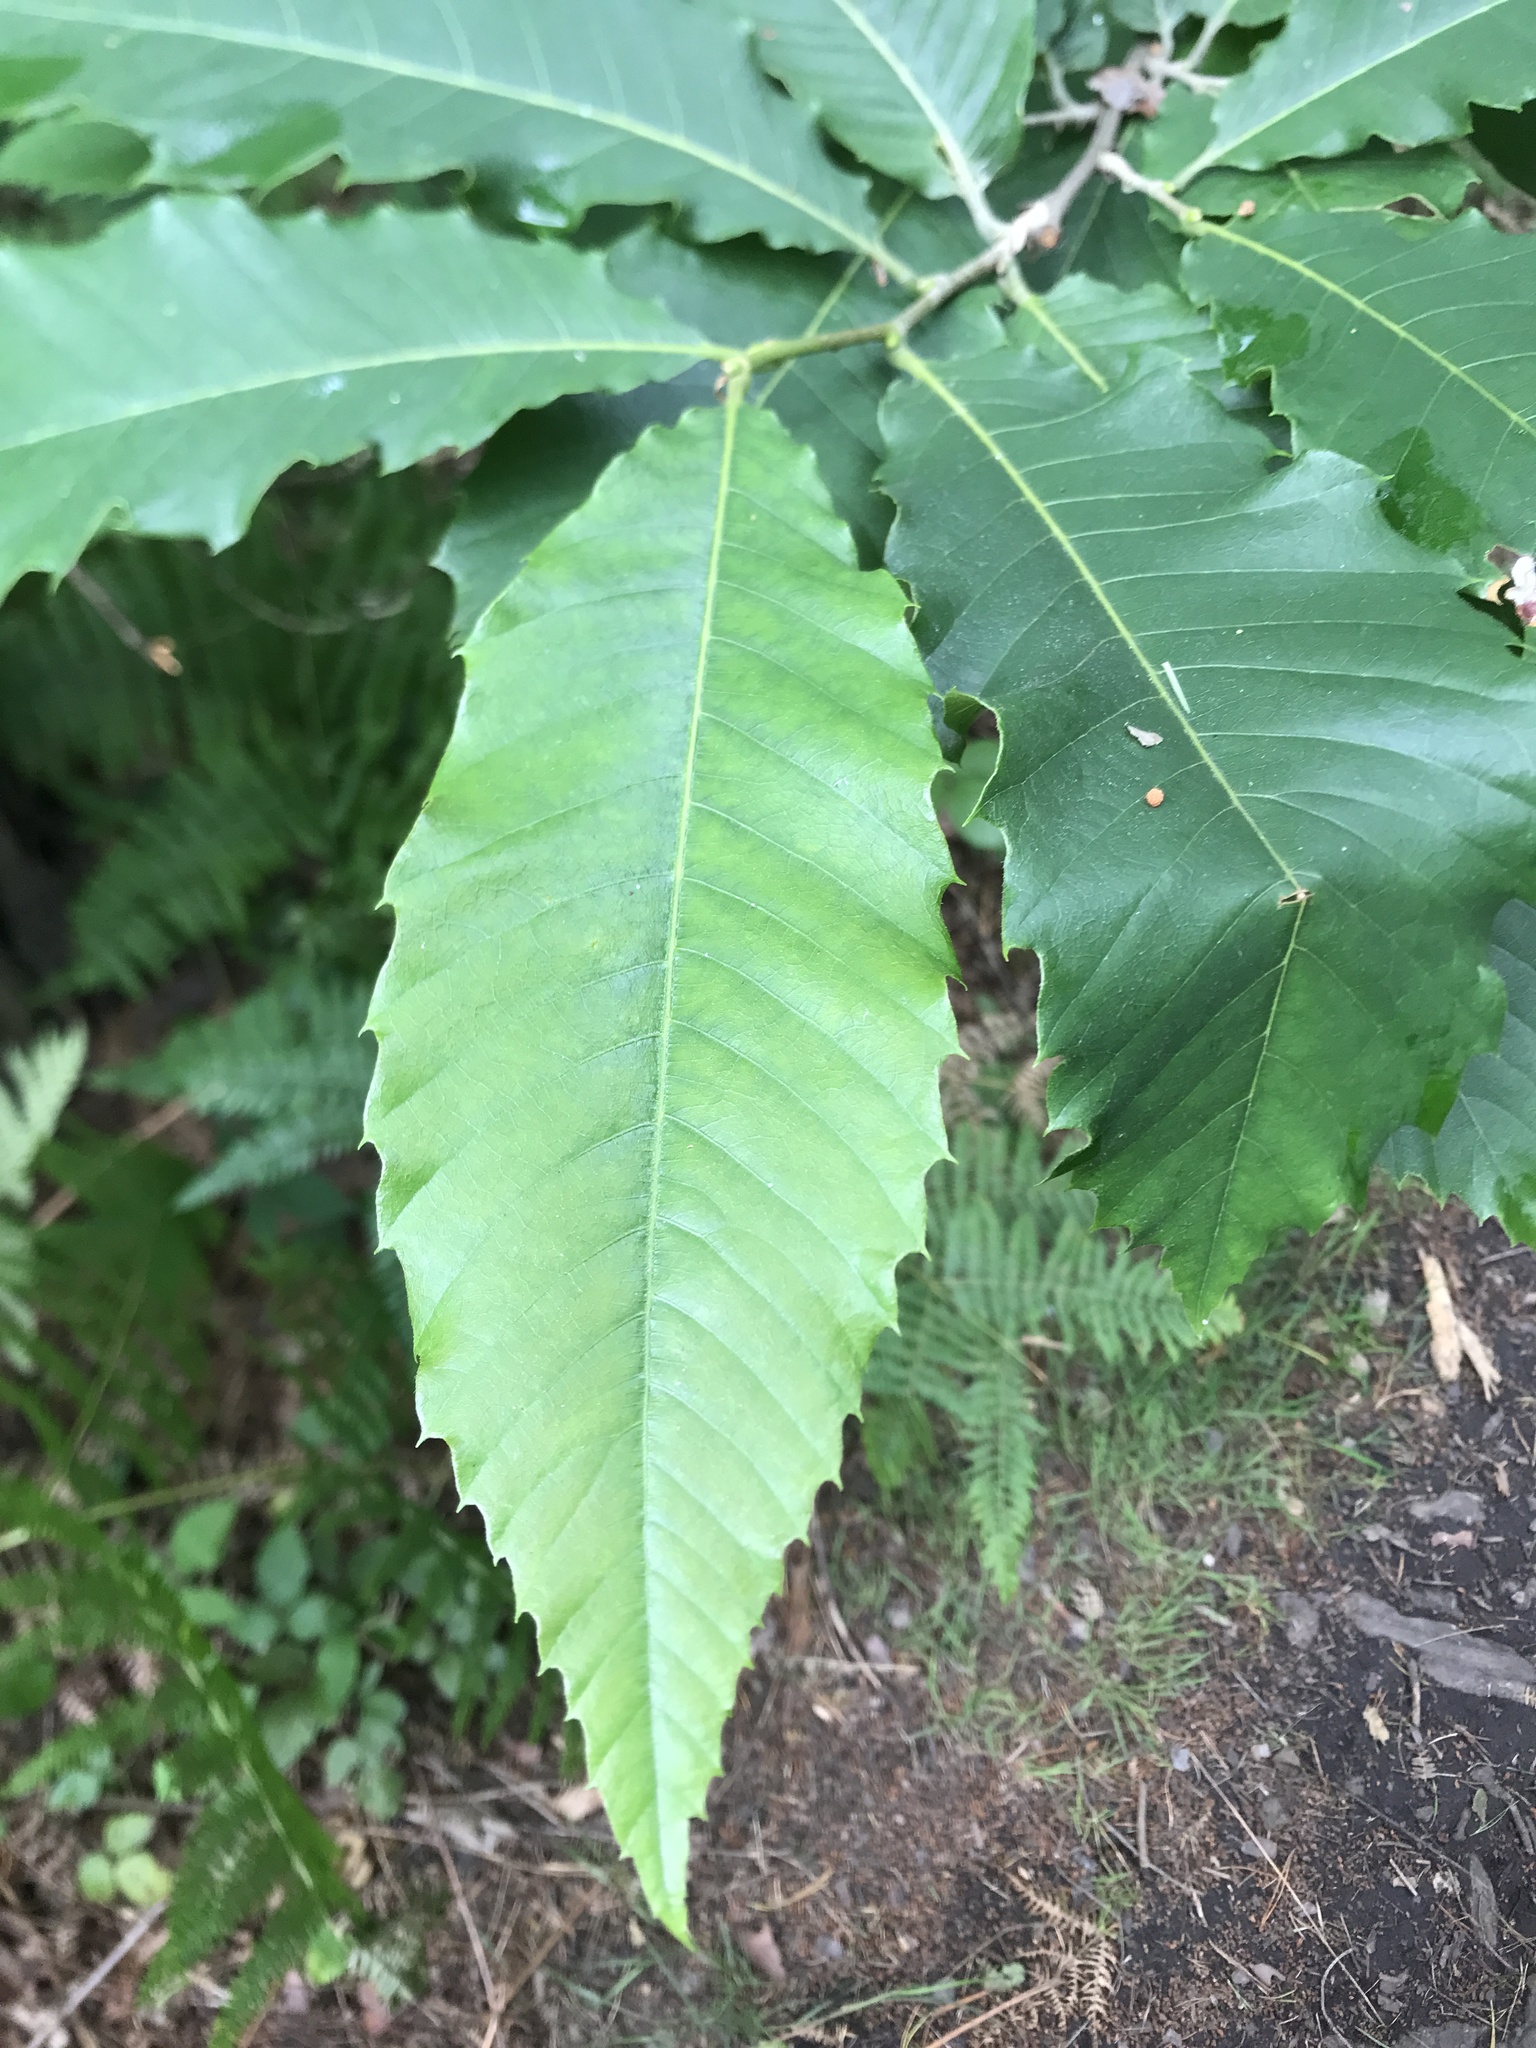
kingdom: Plantae
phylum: Tracheophyta
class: Magnoliopsida
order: Fagales
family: Fagaceae
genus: Castanea
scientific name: Castanea sativa
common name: Sweet chestnut
